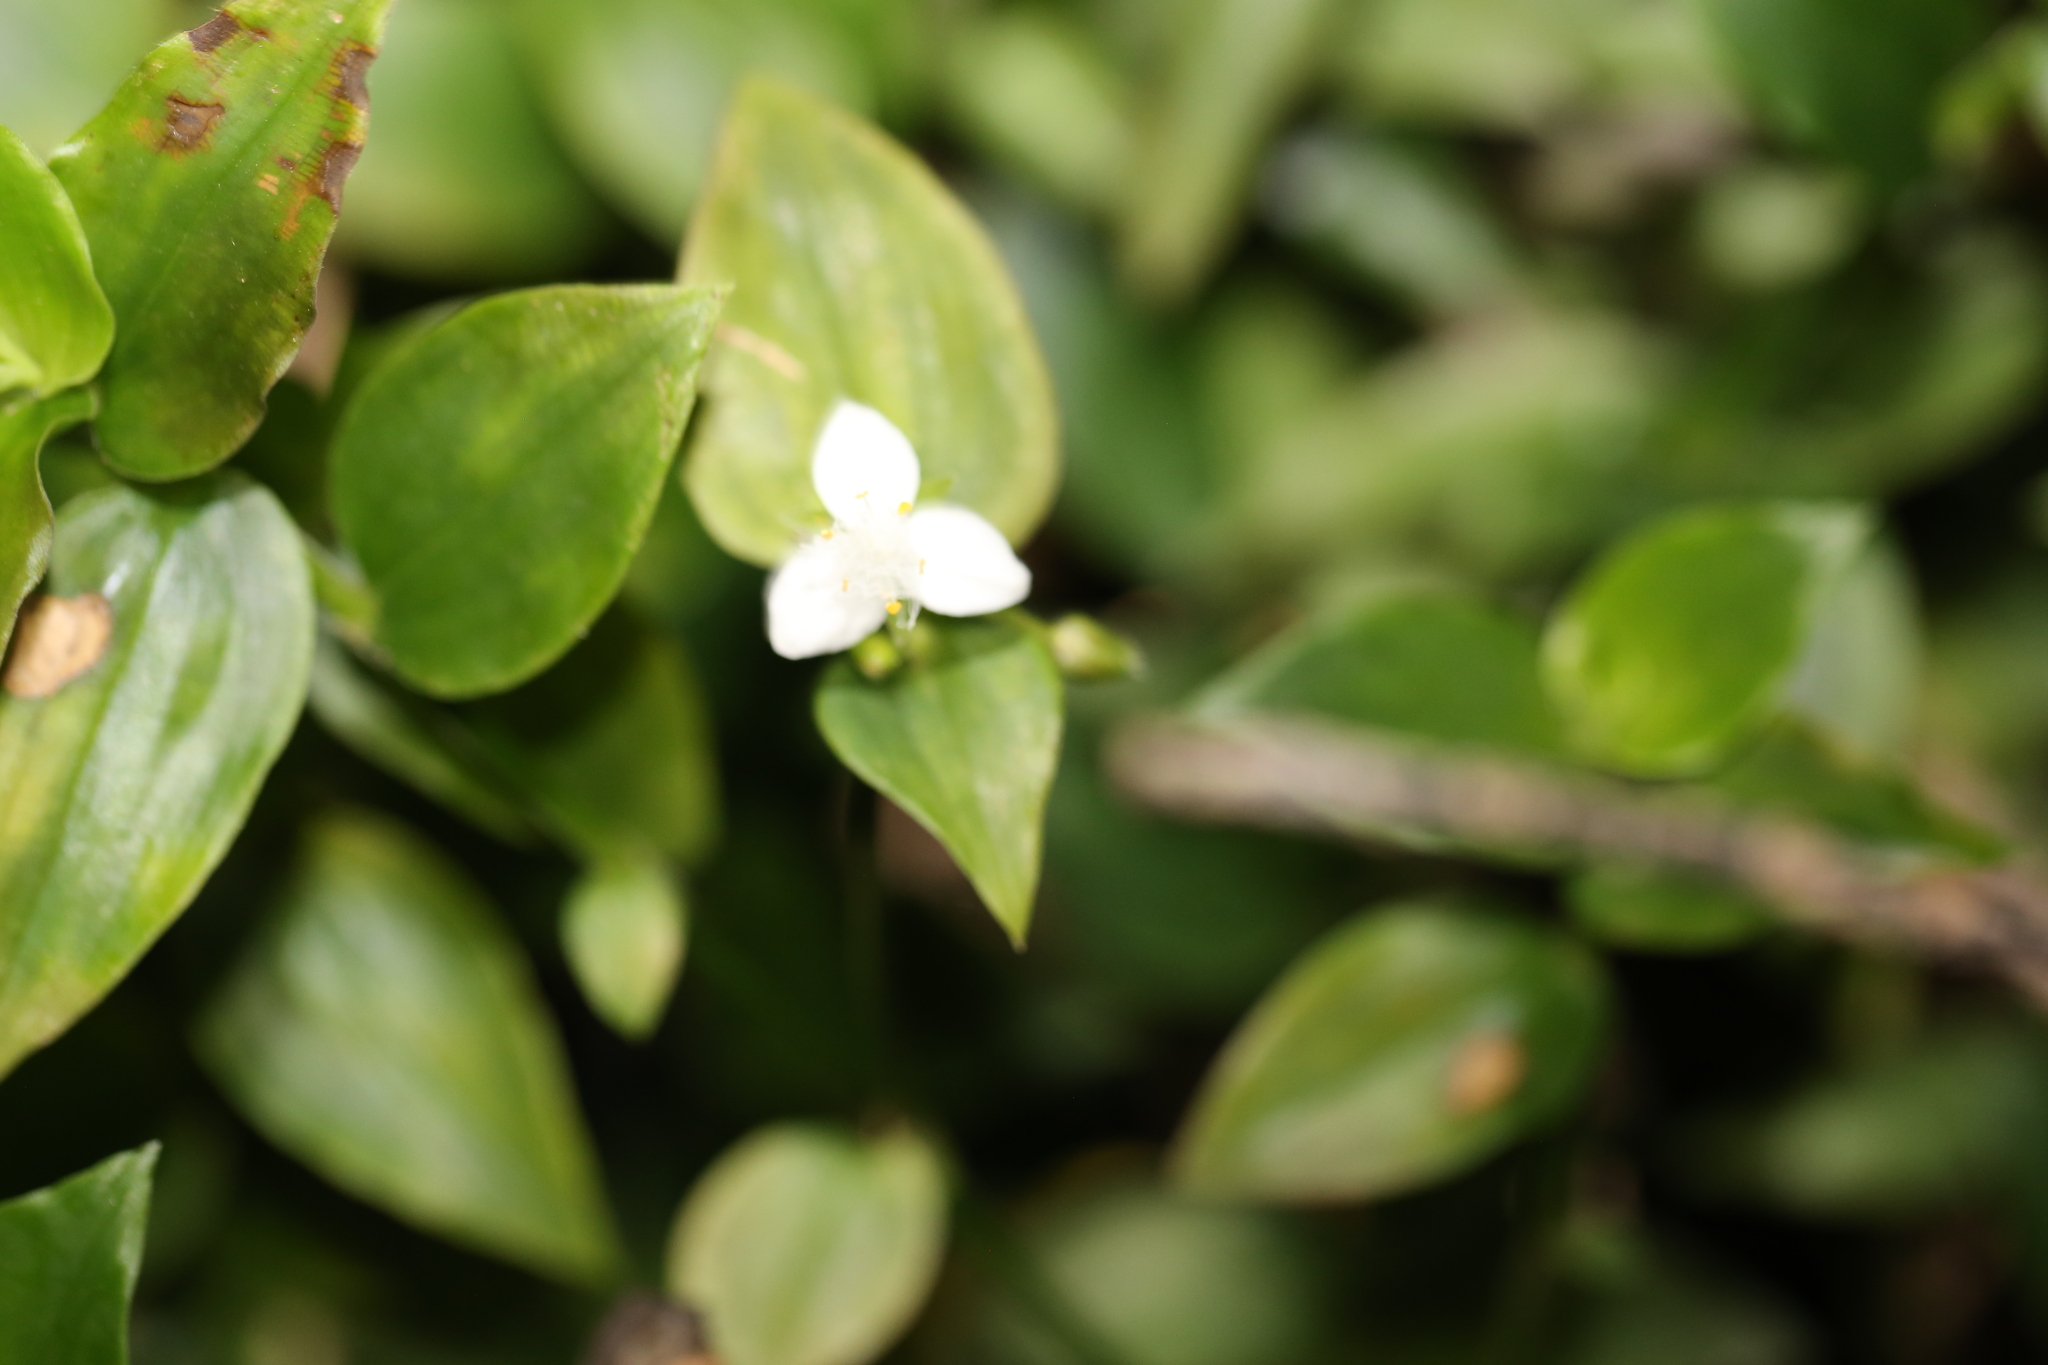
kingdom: Plantae
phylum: Tracheophyta
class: Liliopsida
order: Commelinales
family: Commelinaceae
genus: Tradescantia
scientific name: Tradescantia fluminensis
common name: Wandering-jew
